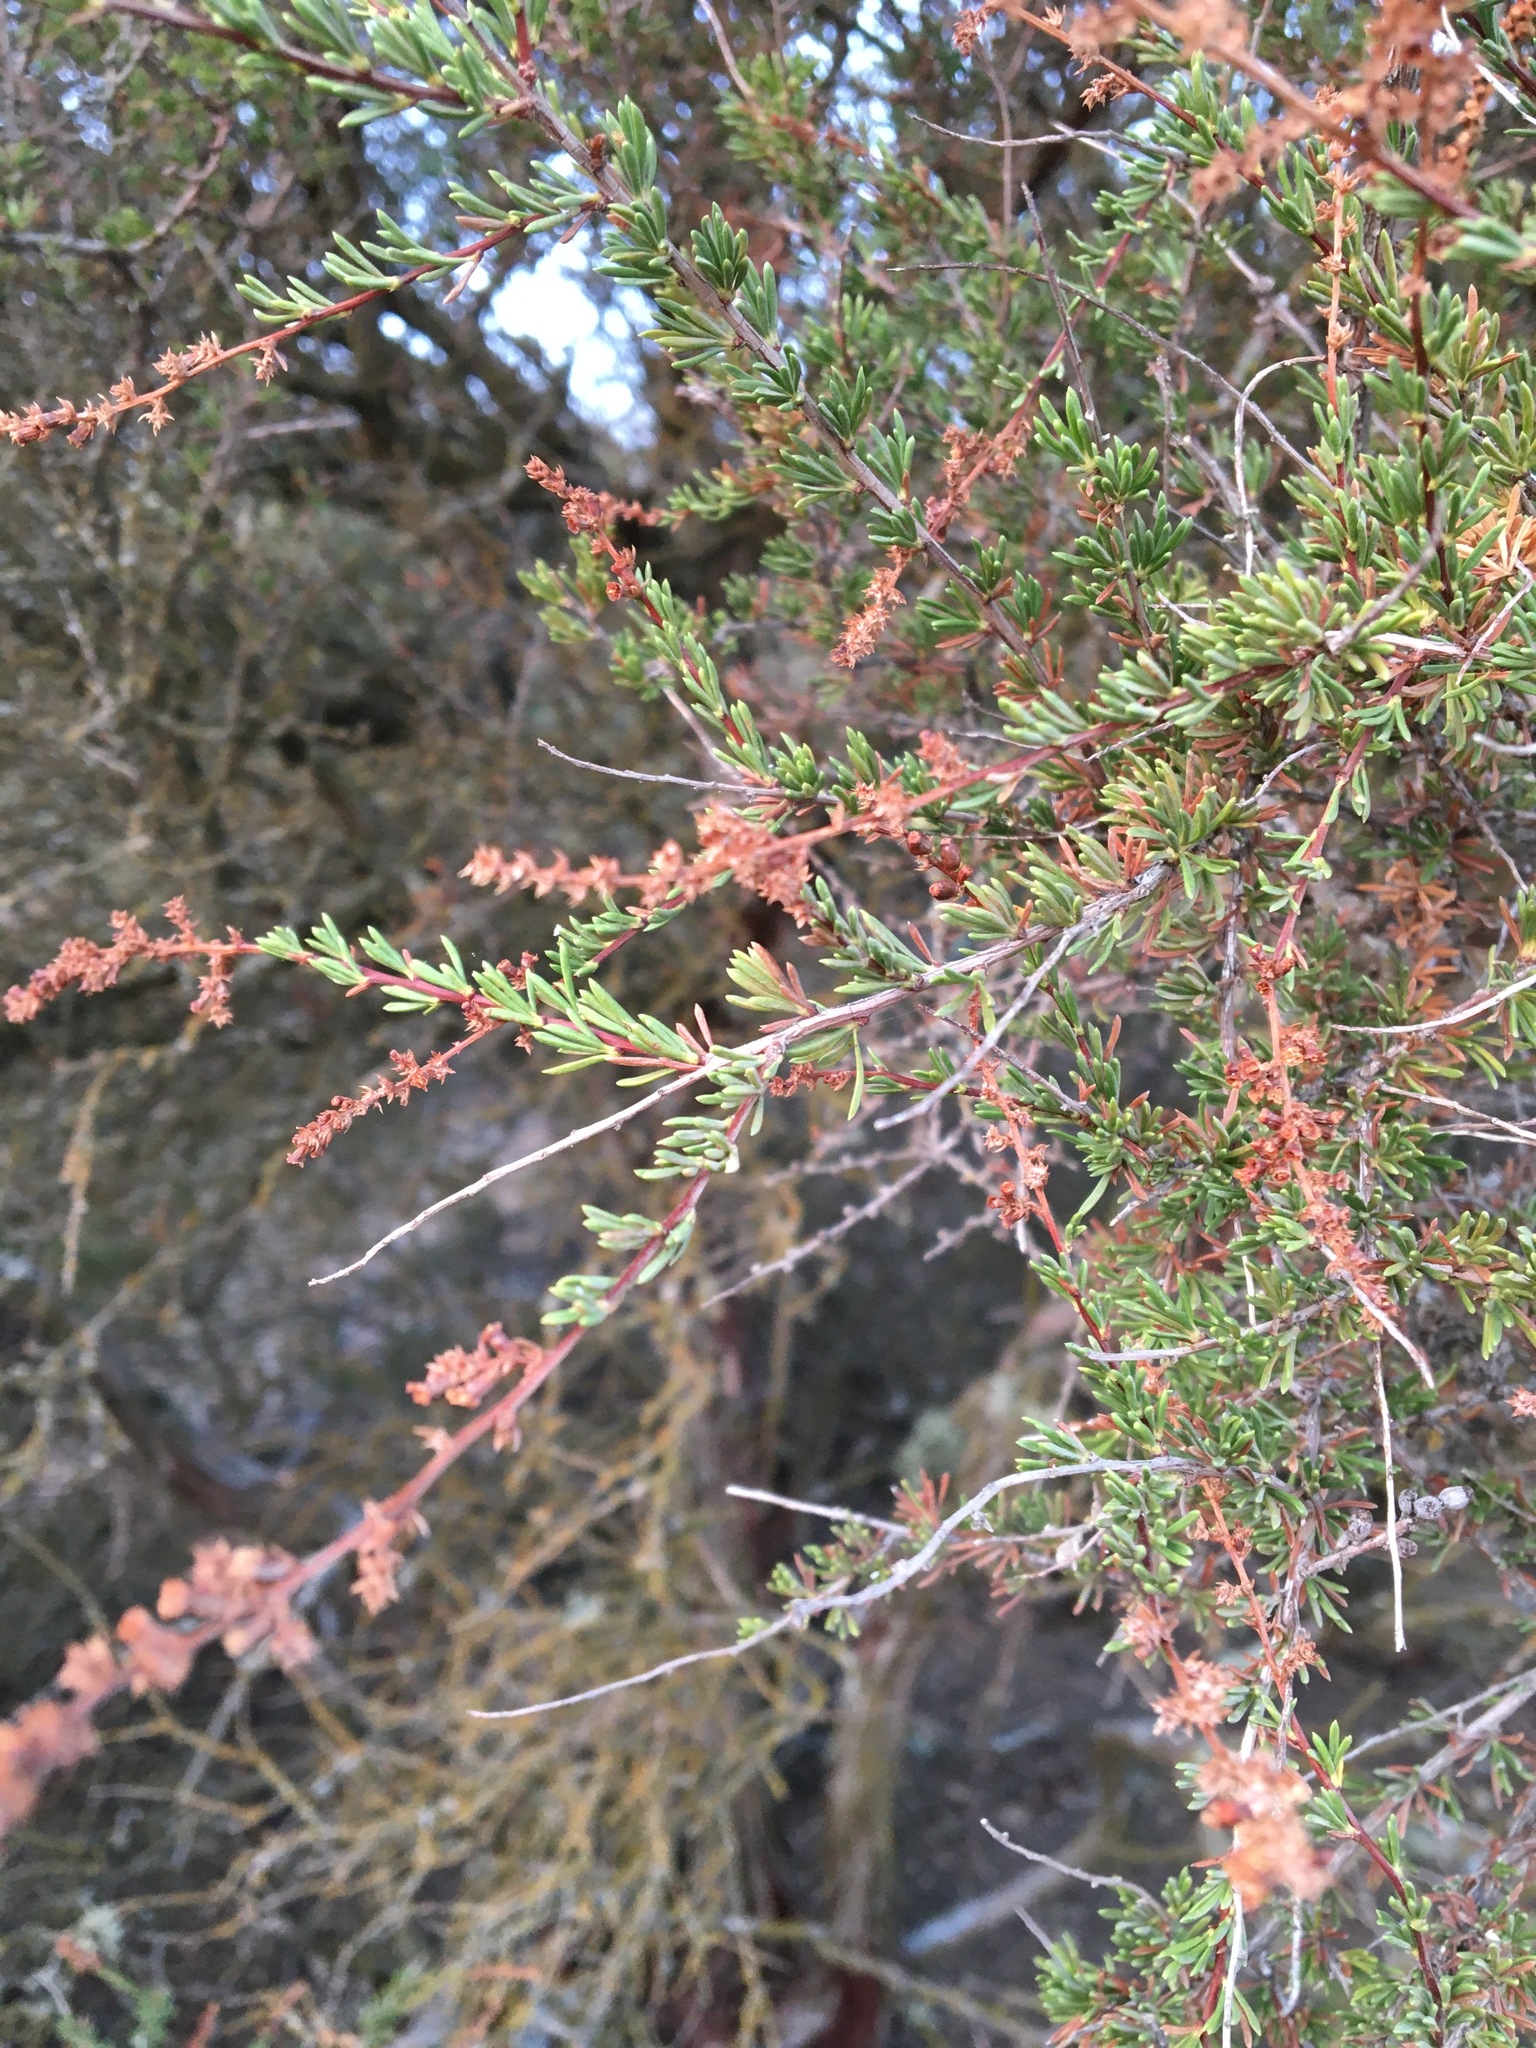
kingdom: Plantae
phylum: Tracheophyta
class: Magnoliopsida
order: Rosales
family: Rosaceae
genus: Adenostoma
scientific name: Adenostoma fasciculatum
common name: Chamise
